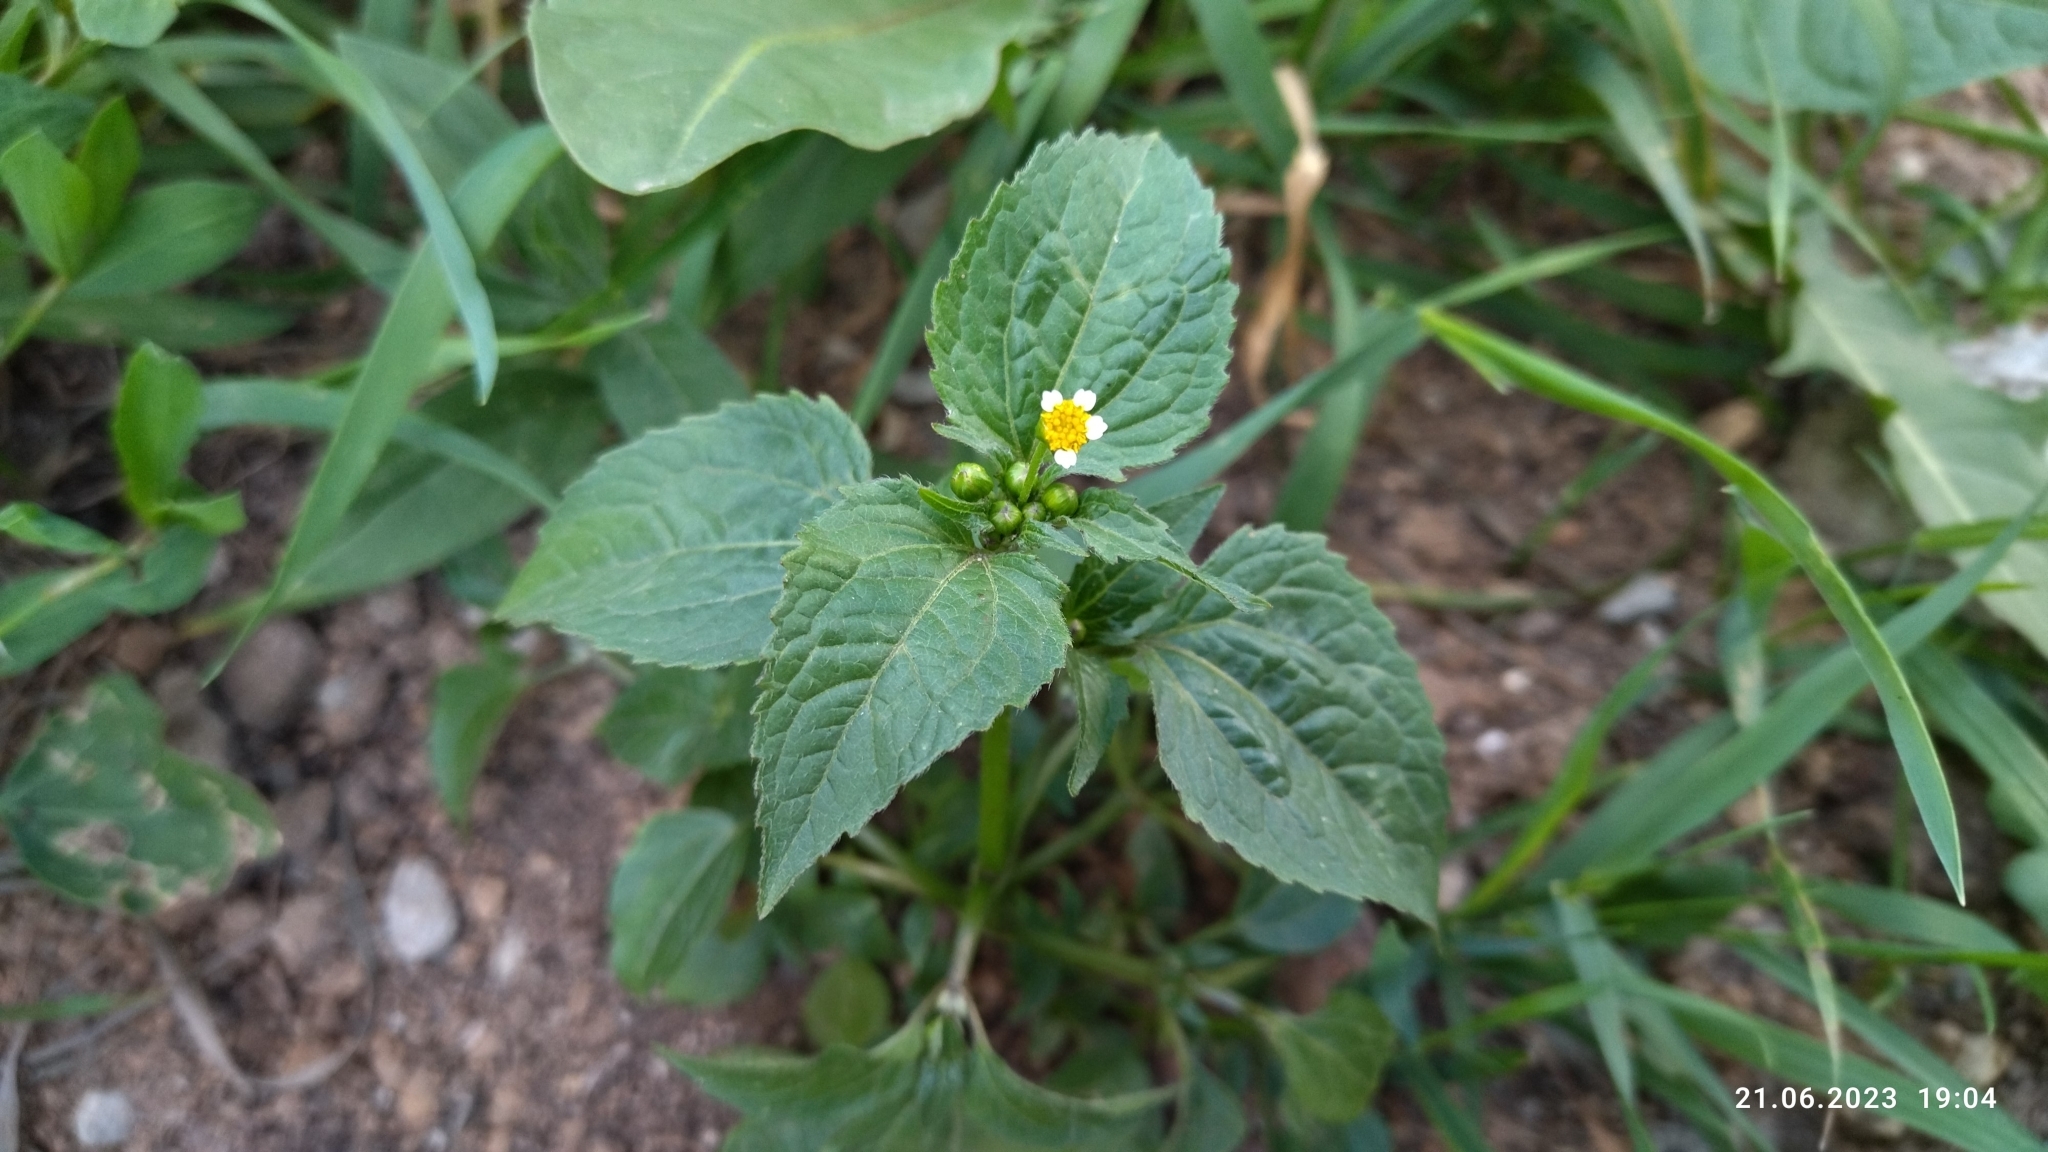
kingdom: Plantae
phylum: Tracheophyta
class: Magnoliopsida
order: Asterales
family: Asteraceae
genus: Galinsoga
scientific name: Galinsoga parviflora
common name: Gallant soldier
